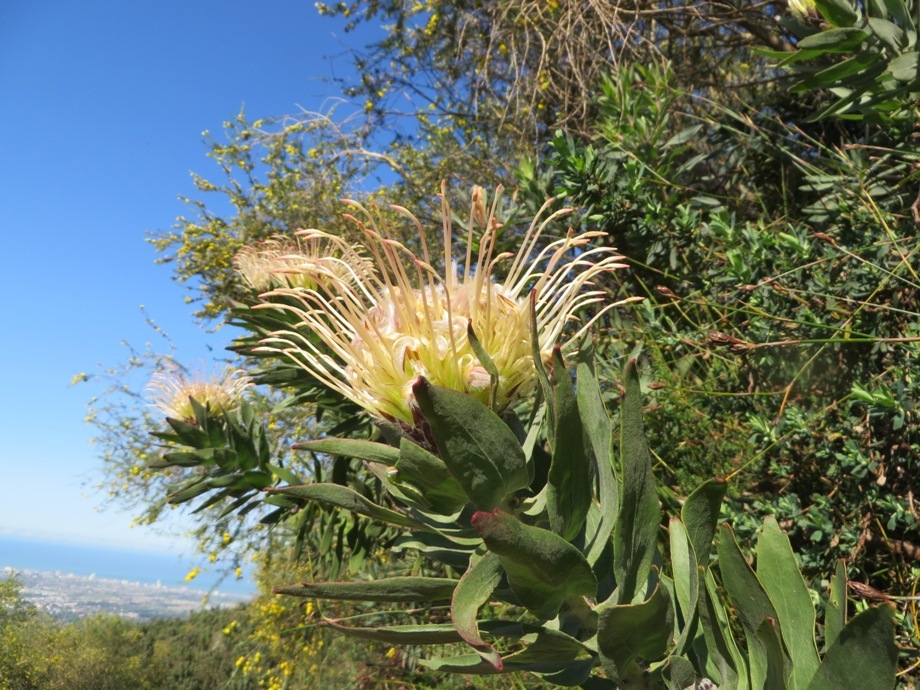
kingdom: Plantae
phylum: Tracheophyta
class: Magnoliopsida
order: Proteales
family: Proteaceae
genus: Leucospermum
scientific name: Leucospermum gueinzii
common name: Kloof fountain pincushion
